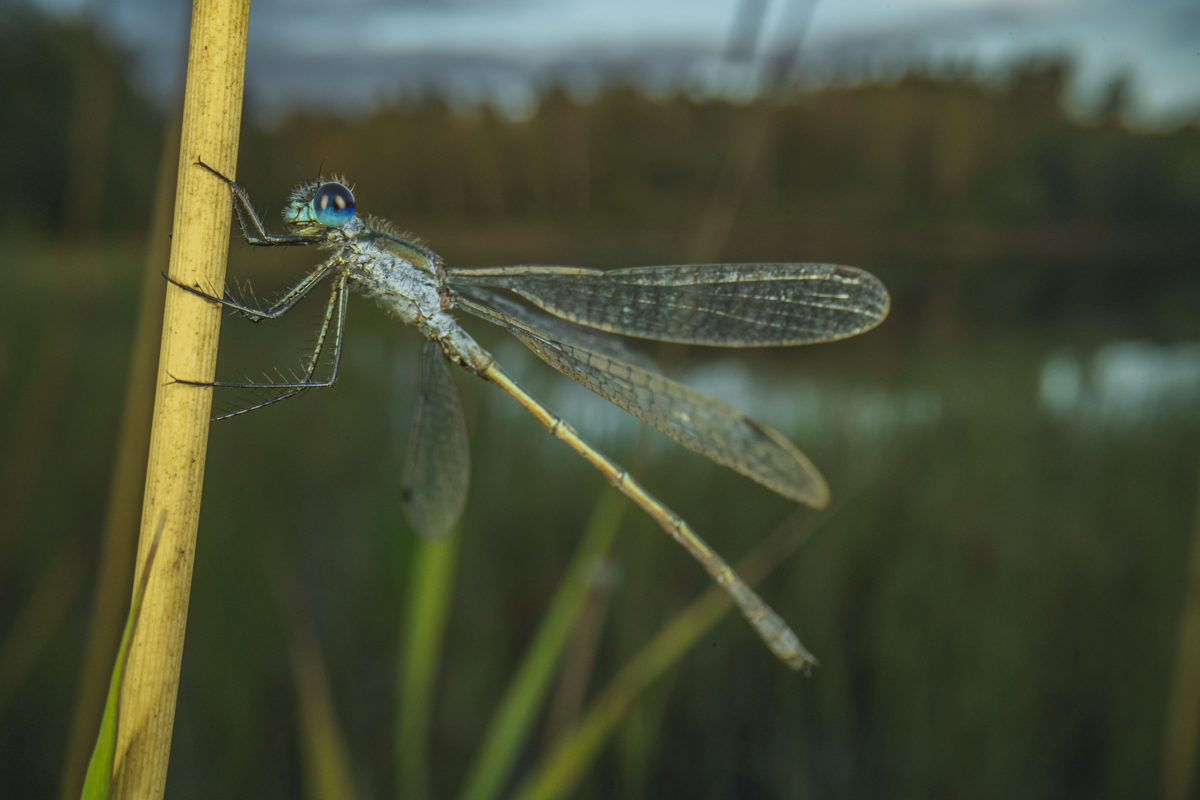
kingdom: Animalia
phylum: Arthropoda
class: Insecta
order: Odonata
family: Lestidae
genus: Lestes
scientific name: Lestes sponsa
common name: Common spreadwing
